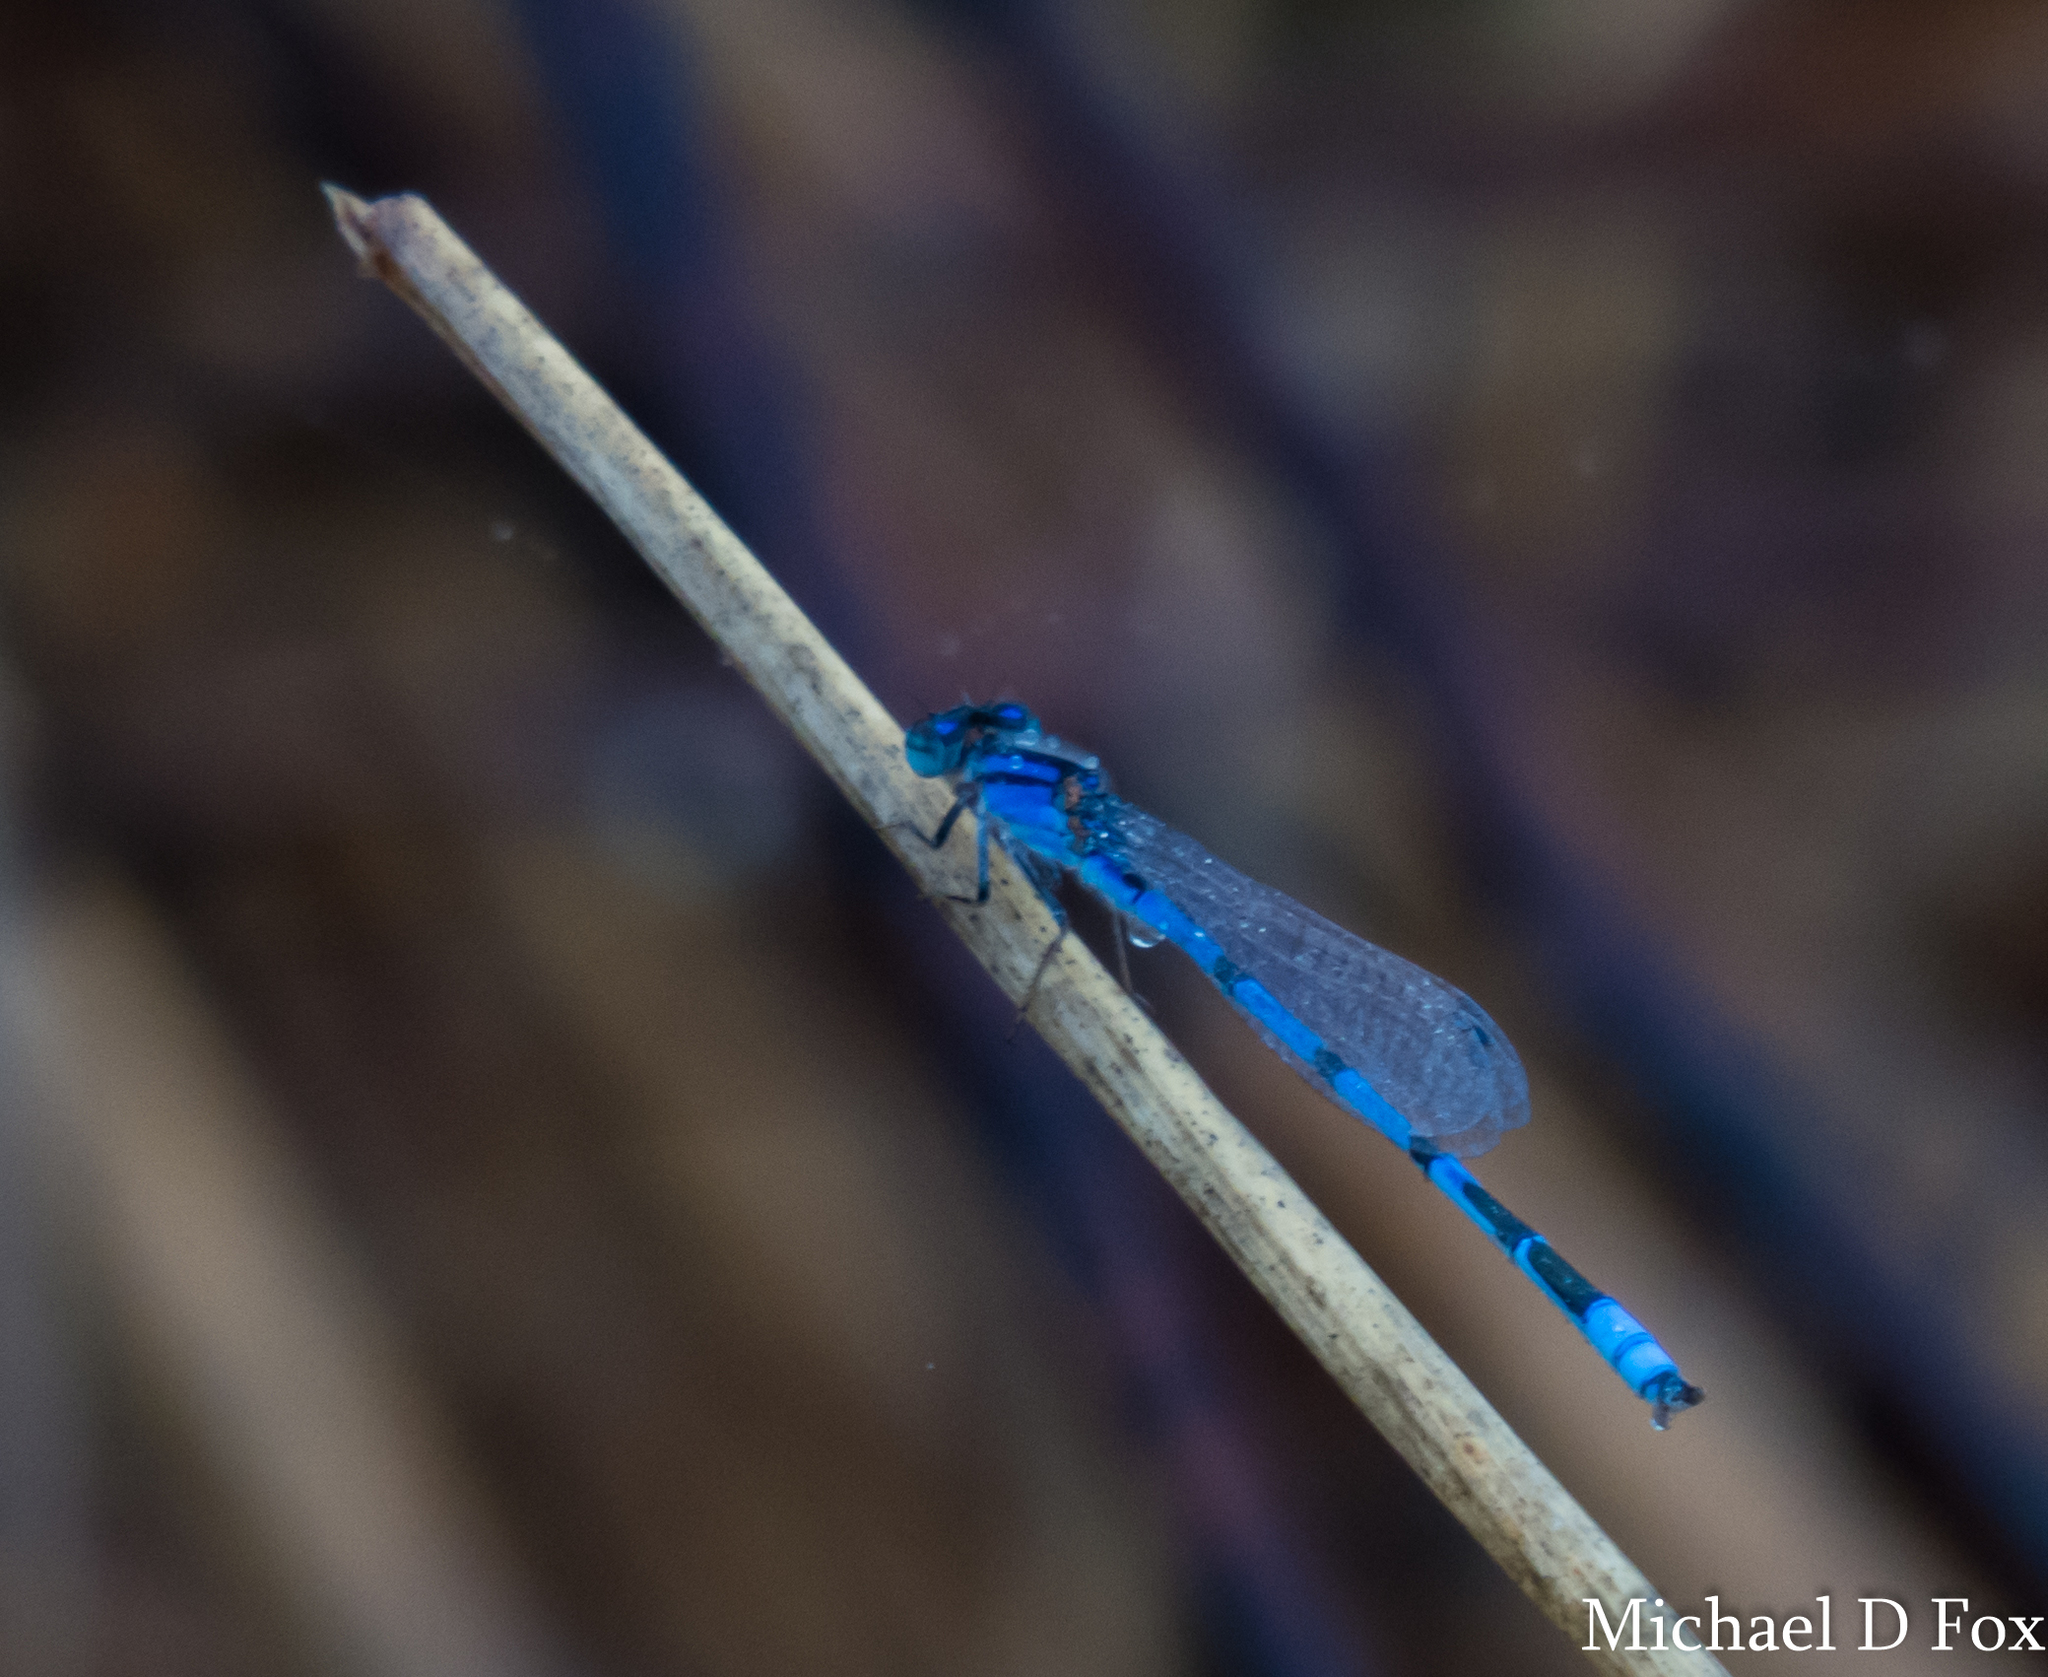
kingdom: Animalia
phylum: Arthropoda
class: Insecta
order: Odonata
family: Coenagrionidae
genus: Enallagma
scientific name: Enallagma civile
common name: Damselfly
